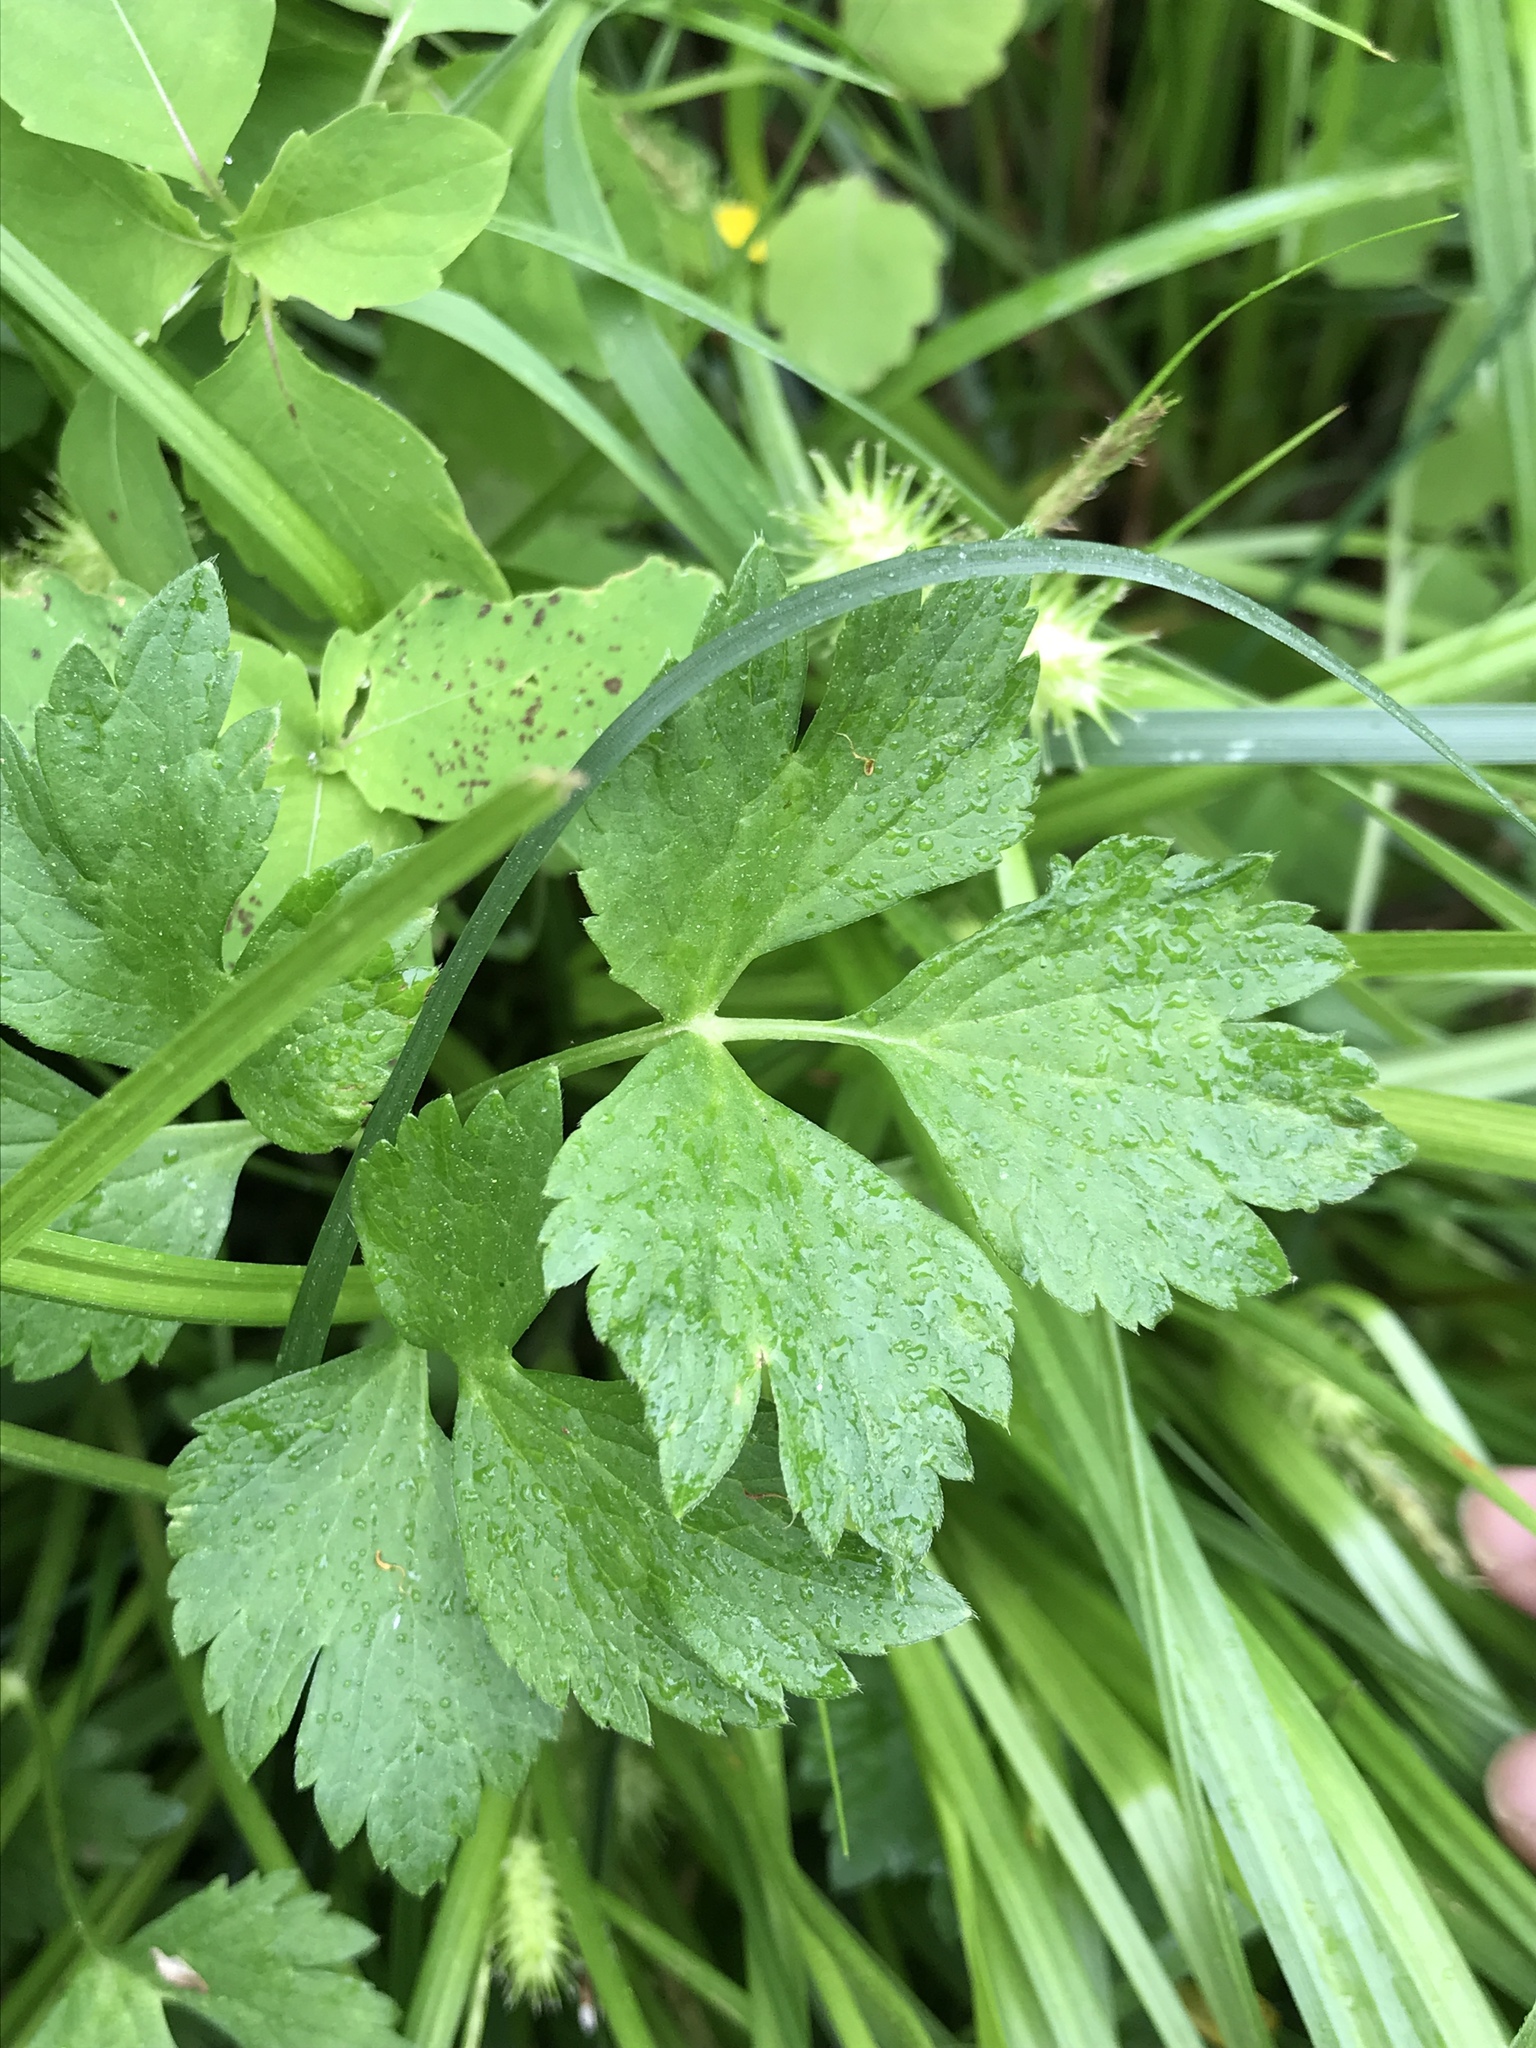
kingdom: Plantae
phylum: Tracheophyta
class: Magnoliopsida
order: Ranunculales
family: Ranunculaceae
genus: Ranunculus
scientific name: Ranunculus repens
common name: Creeping buttercup
